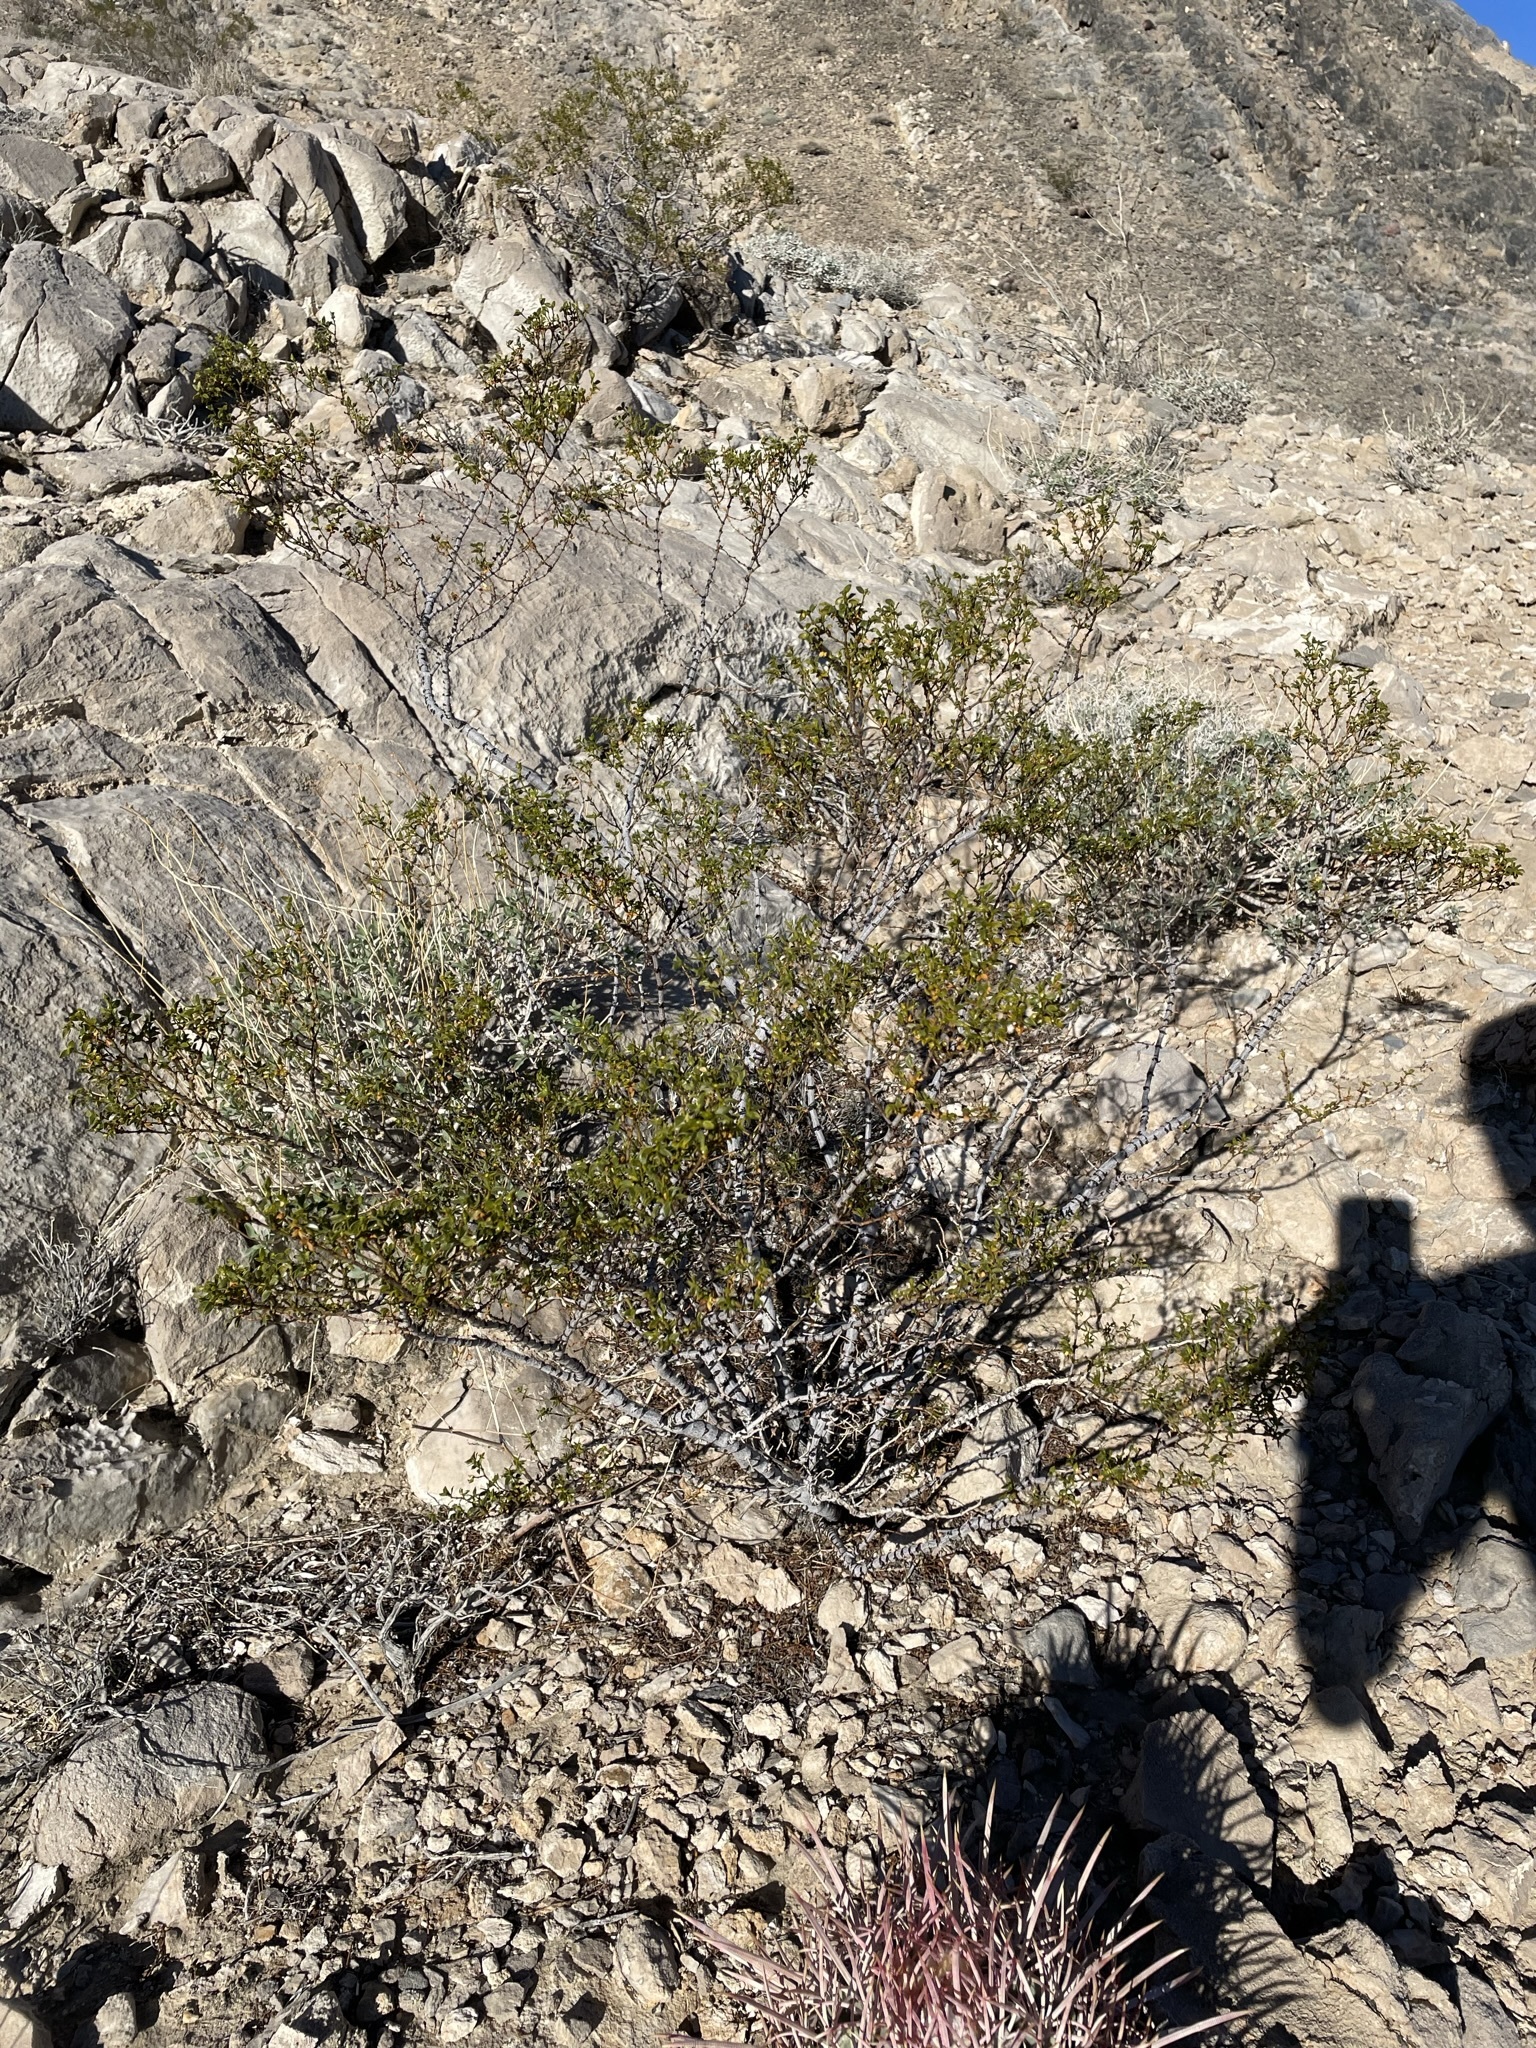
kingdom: Plantae
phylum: Tracheophyta
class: Magnoliopsida
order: Zygophyllales
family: Zygophyllaceae
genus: Larrea
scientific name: Larrea tridentata
